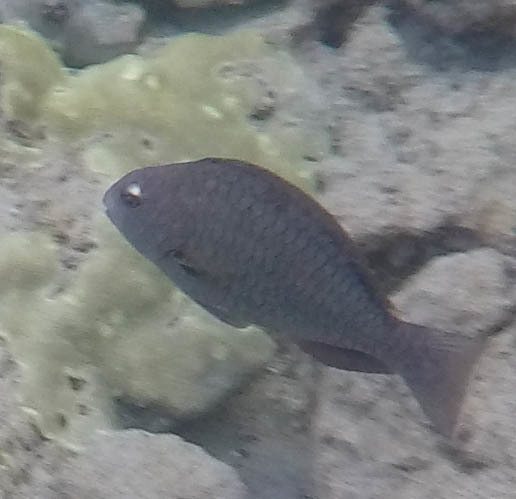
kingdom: Animalia
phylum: Chordata
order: Perciformes
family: Scaridae
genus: Calotomus
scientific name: Calotomus carolinus
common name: Bucktooth
